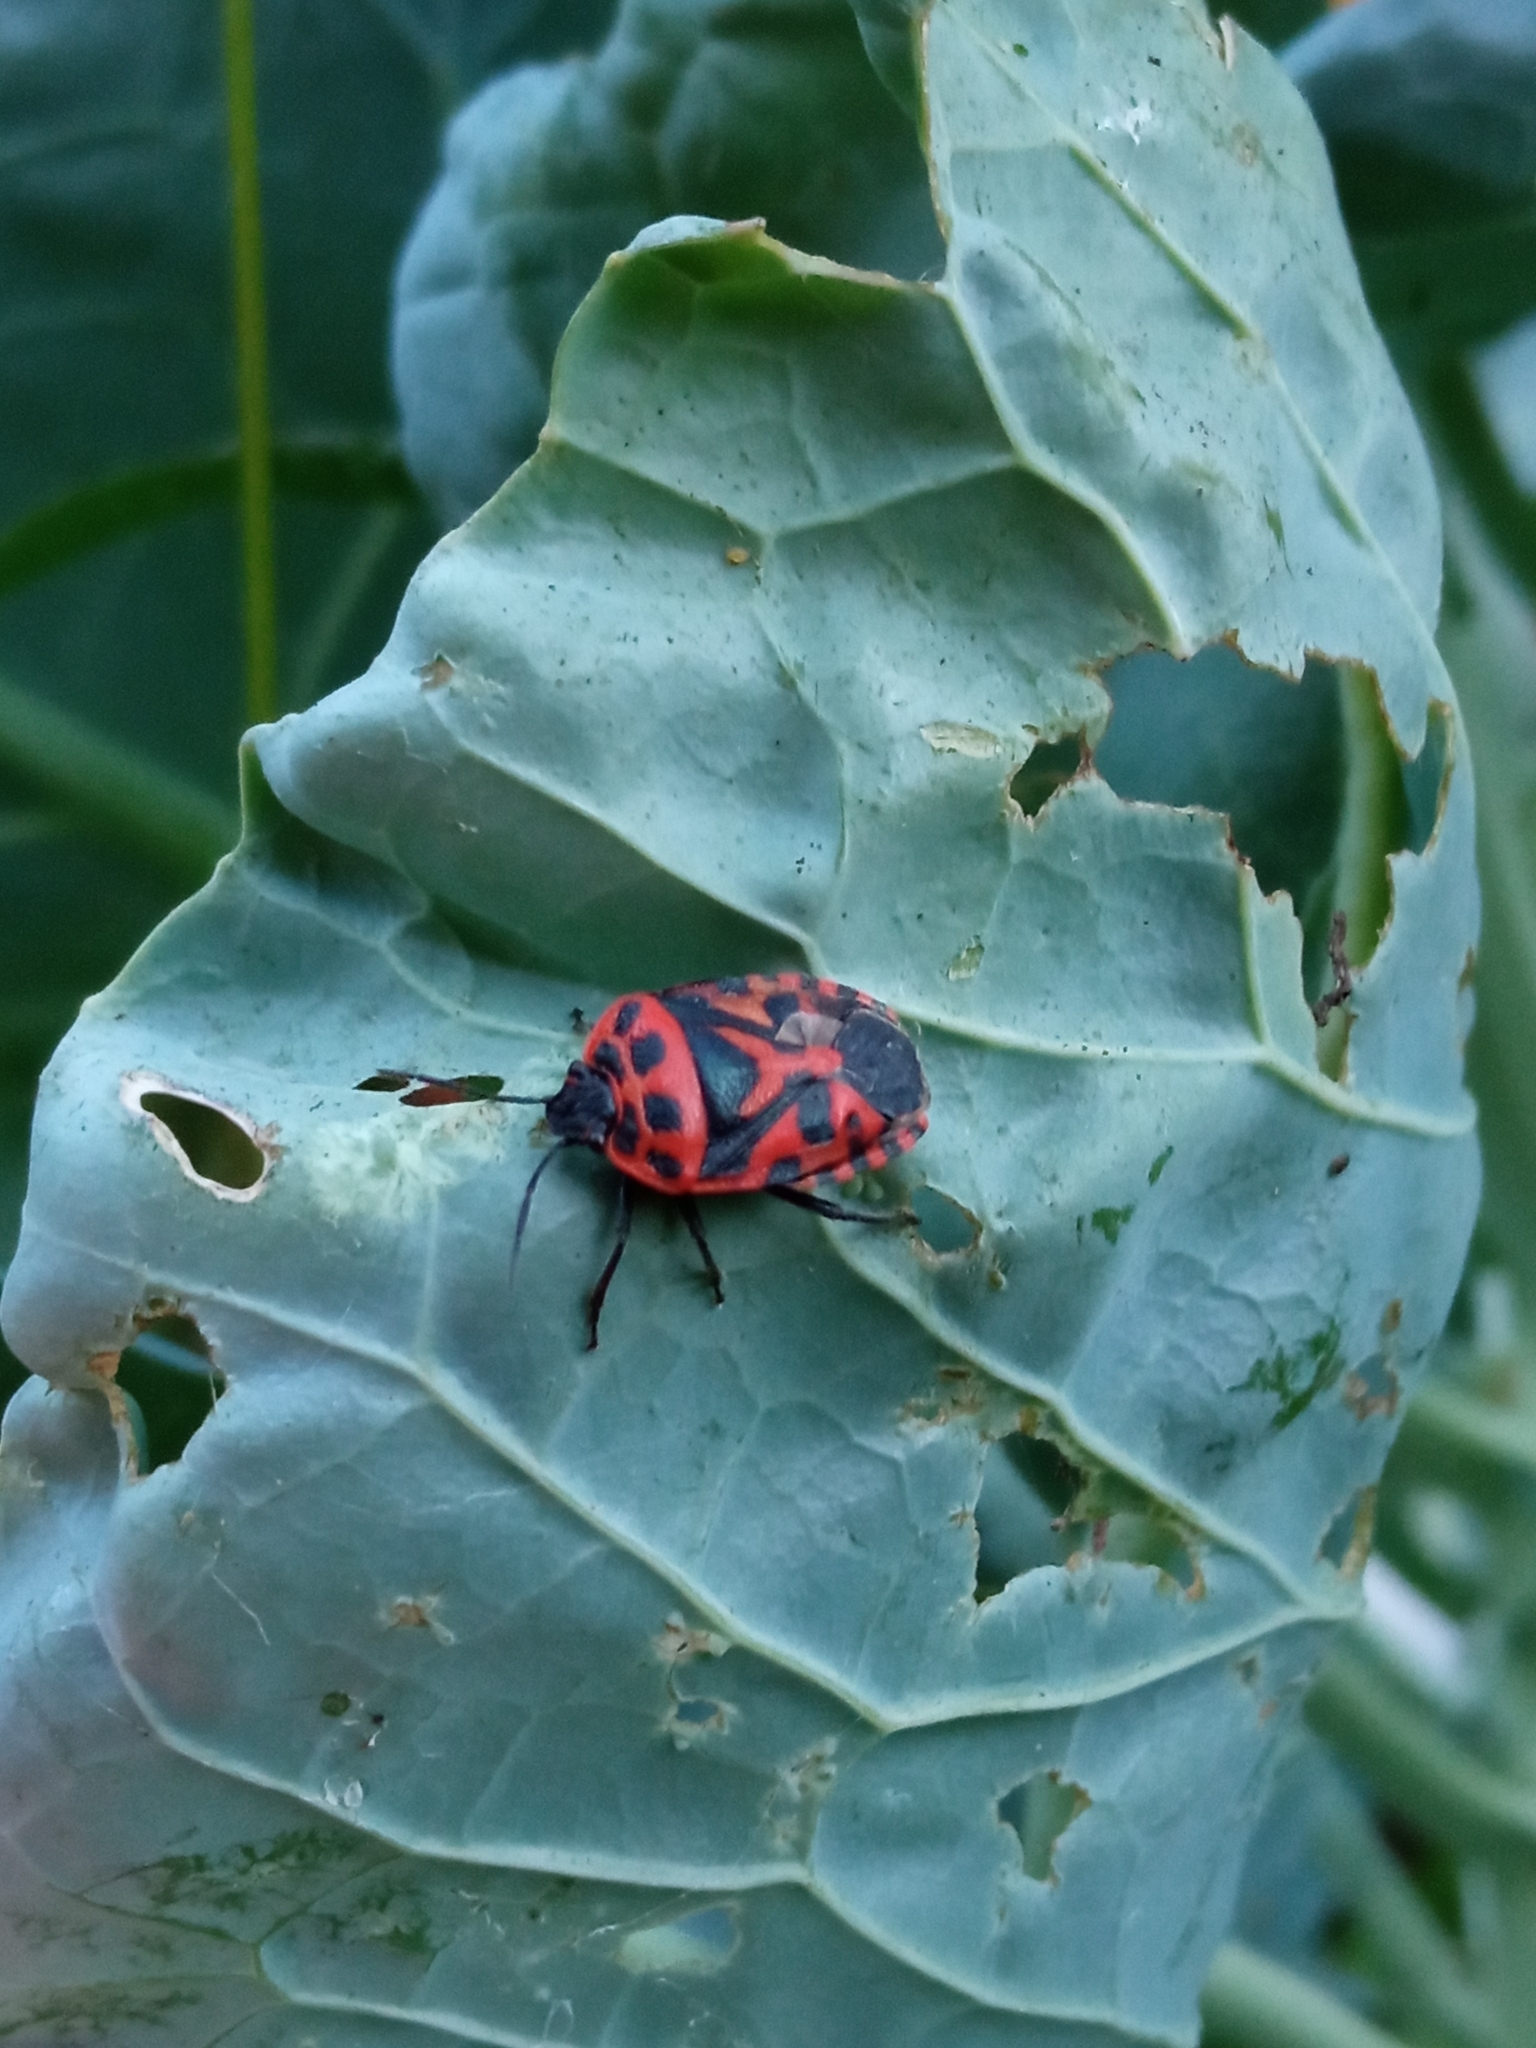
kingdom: Animalia
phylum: Arthropoda
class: Insecta
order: Hemiptera
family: Pentatomidae
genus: Eurydema
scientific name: Eurydema ventralis
